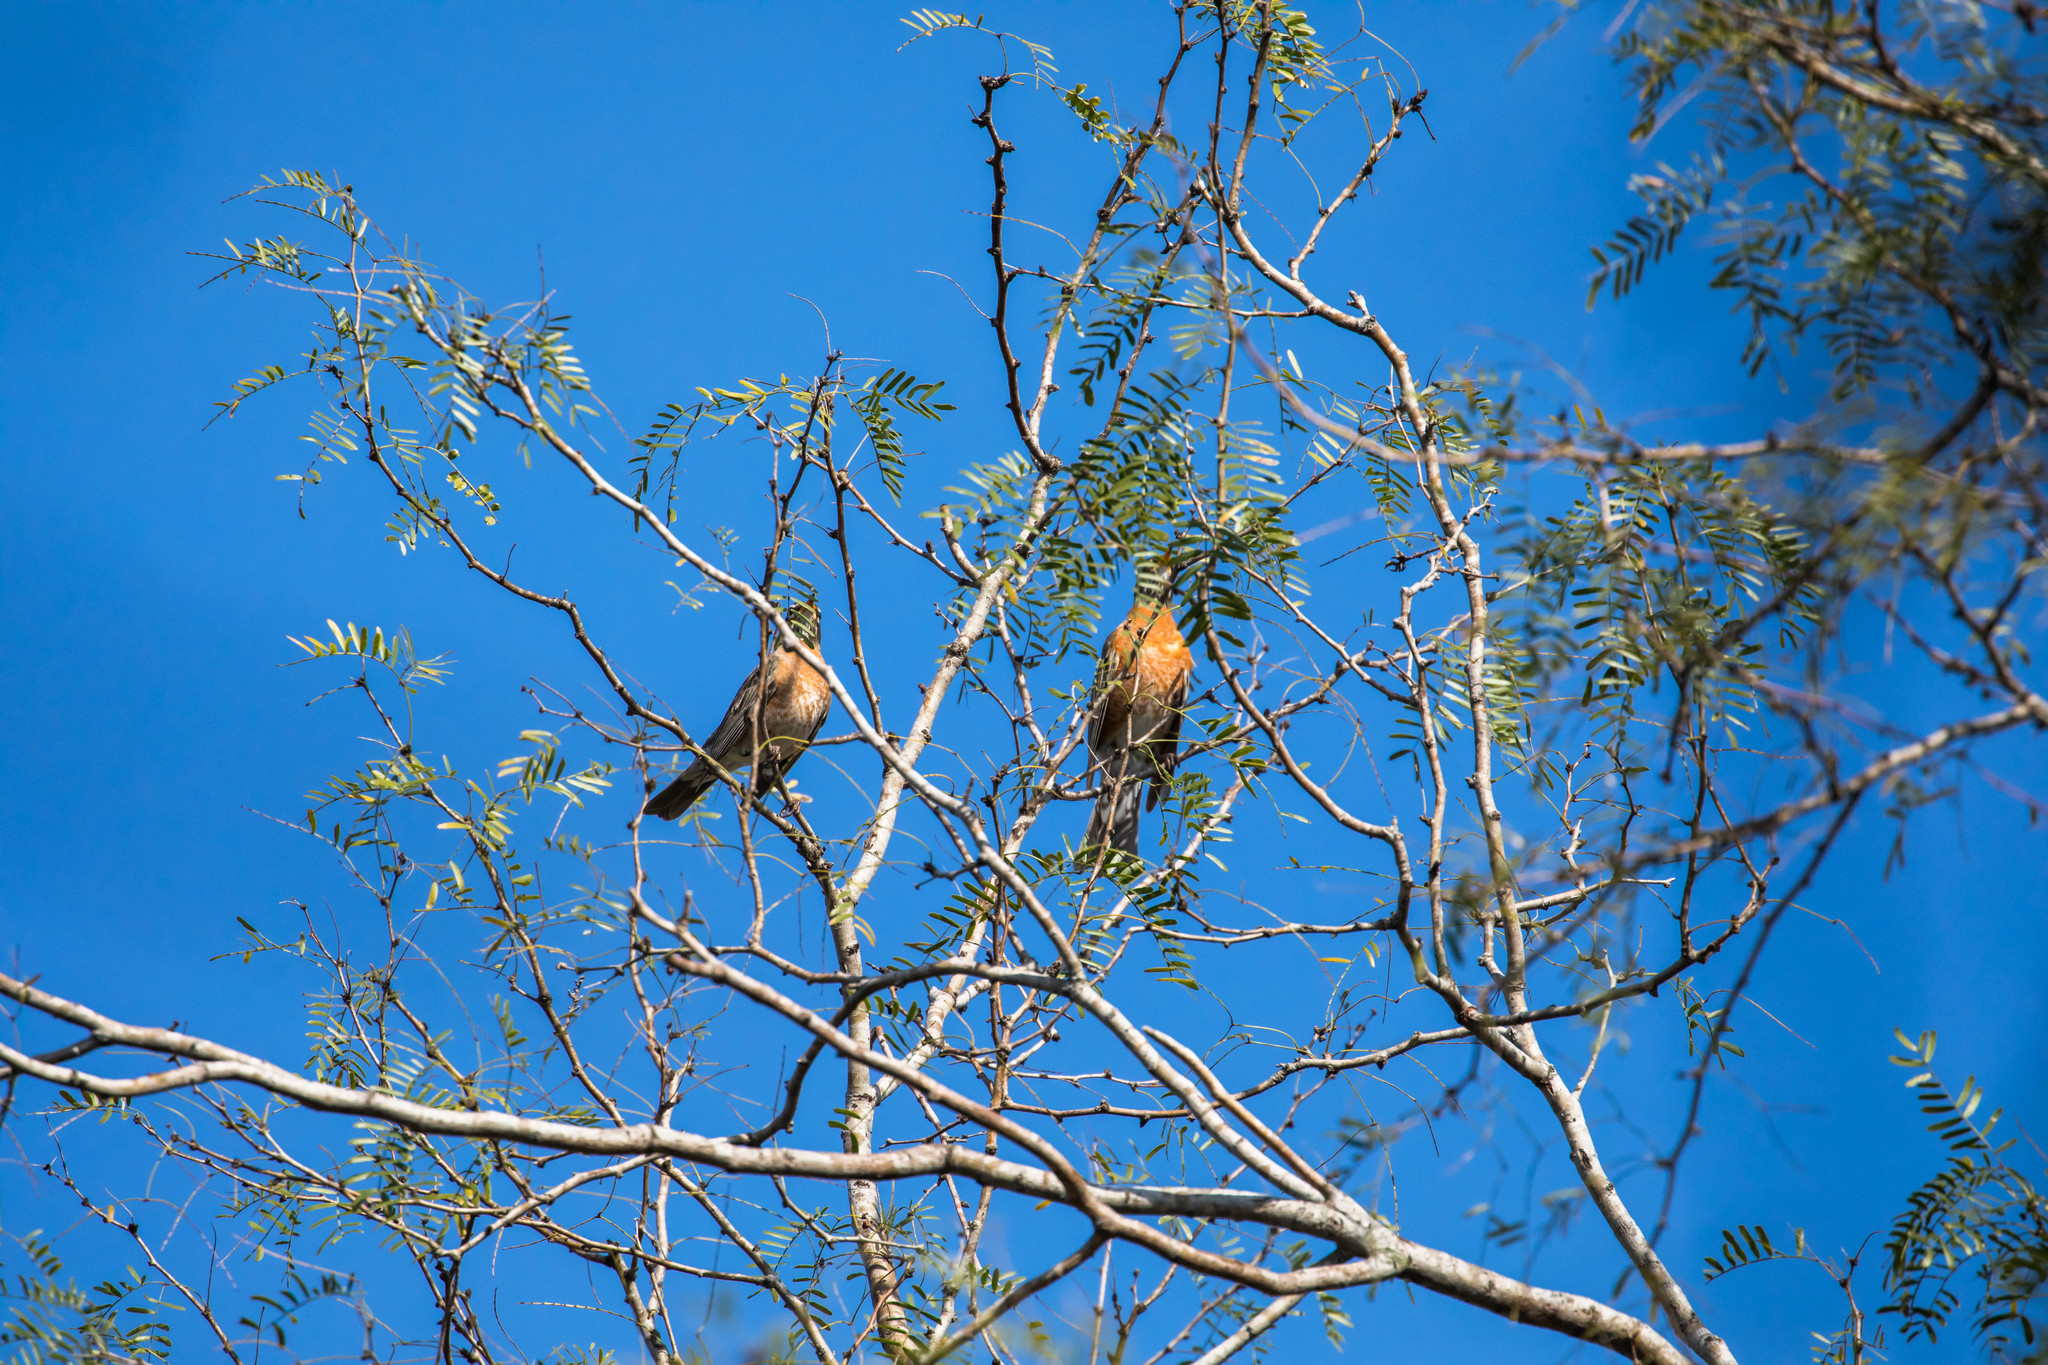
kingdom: Animalia
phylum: Chordata
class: Aves
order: Passeriformes
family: Turdidae
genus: Turdus
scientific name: Turdus migratorius
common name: American robin
